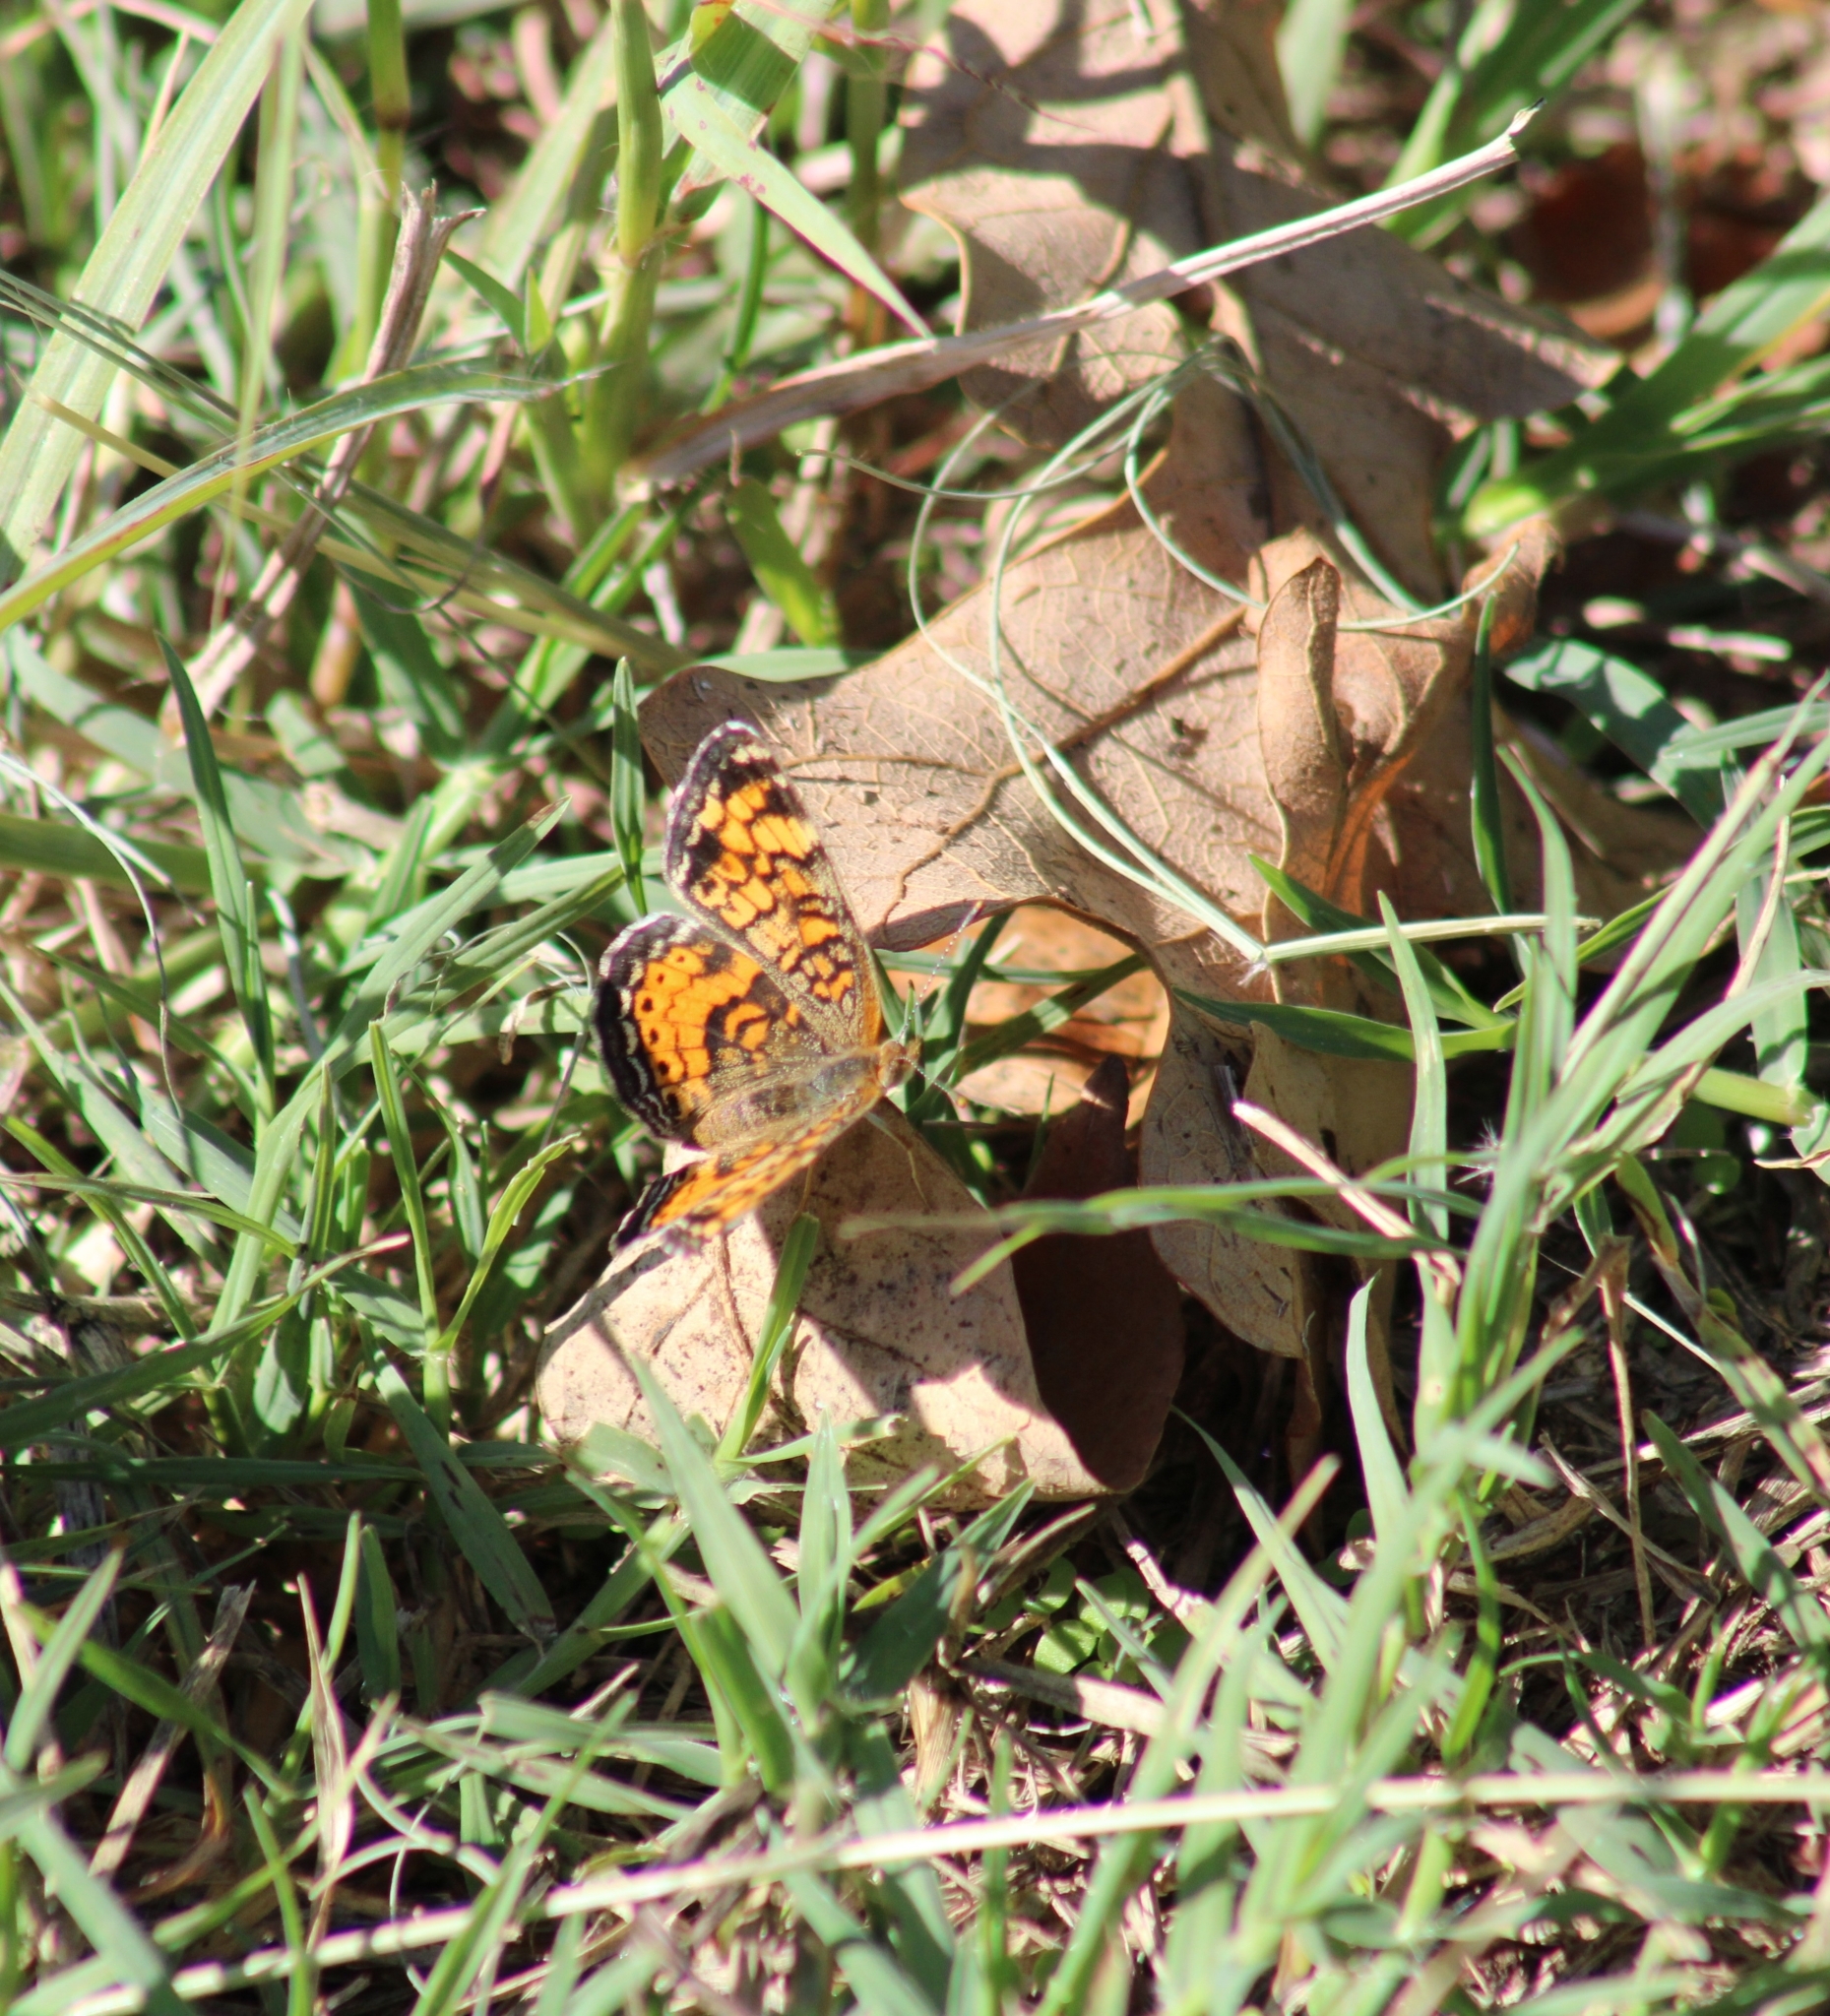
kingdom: Animalia
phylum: Arthropoda
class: Insecta
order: Lepidoptera
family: Nymphalidae
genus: Phyciodes
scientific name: Phyciodes tharos
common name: Pearl crescent
